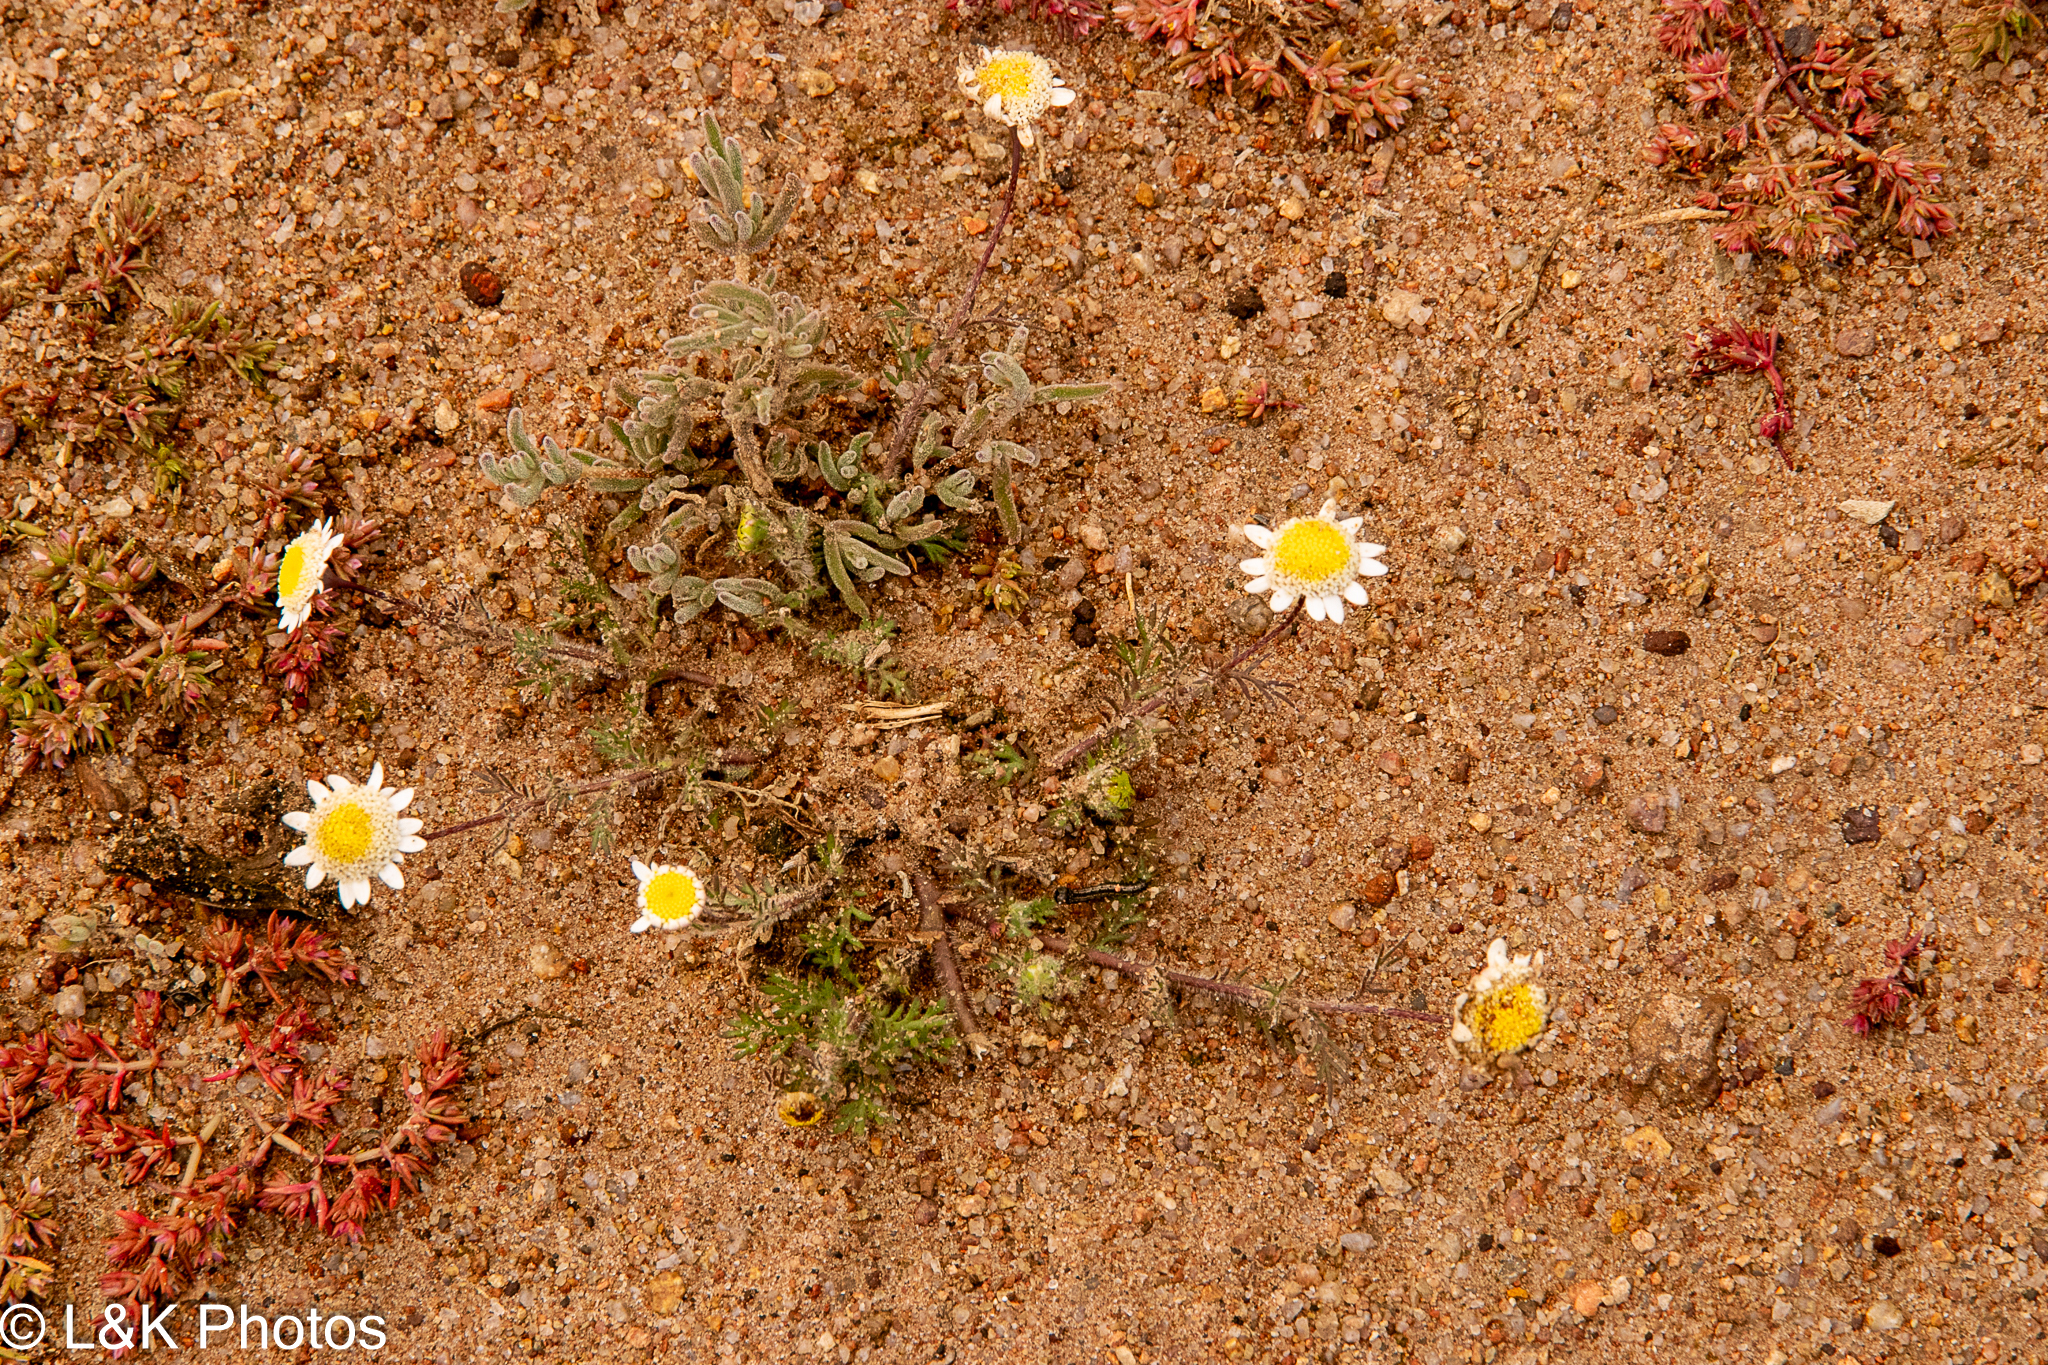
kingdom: Plantae
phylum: Tracheophyta
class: Magnoliopsida
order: Asterales
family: Asteraceae
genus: Cotula
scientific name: Cotula turbinata
